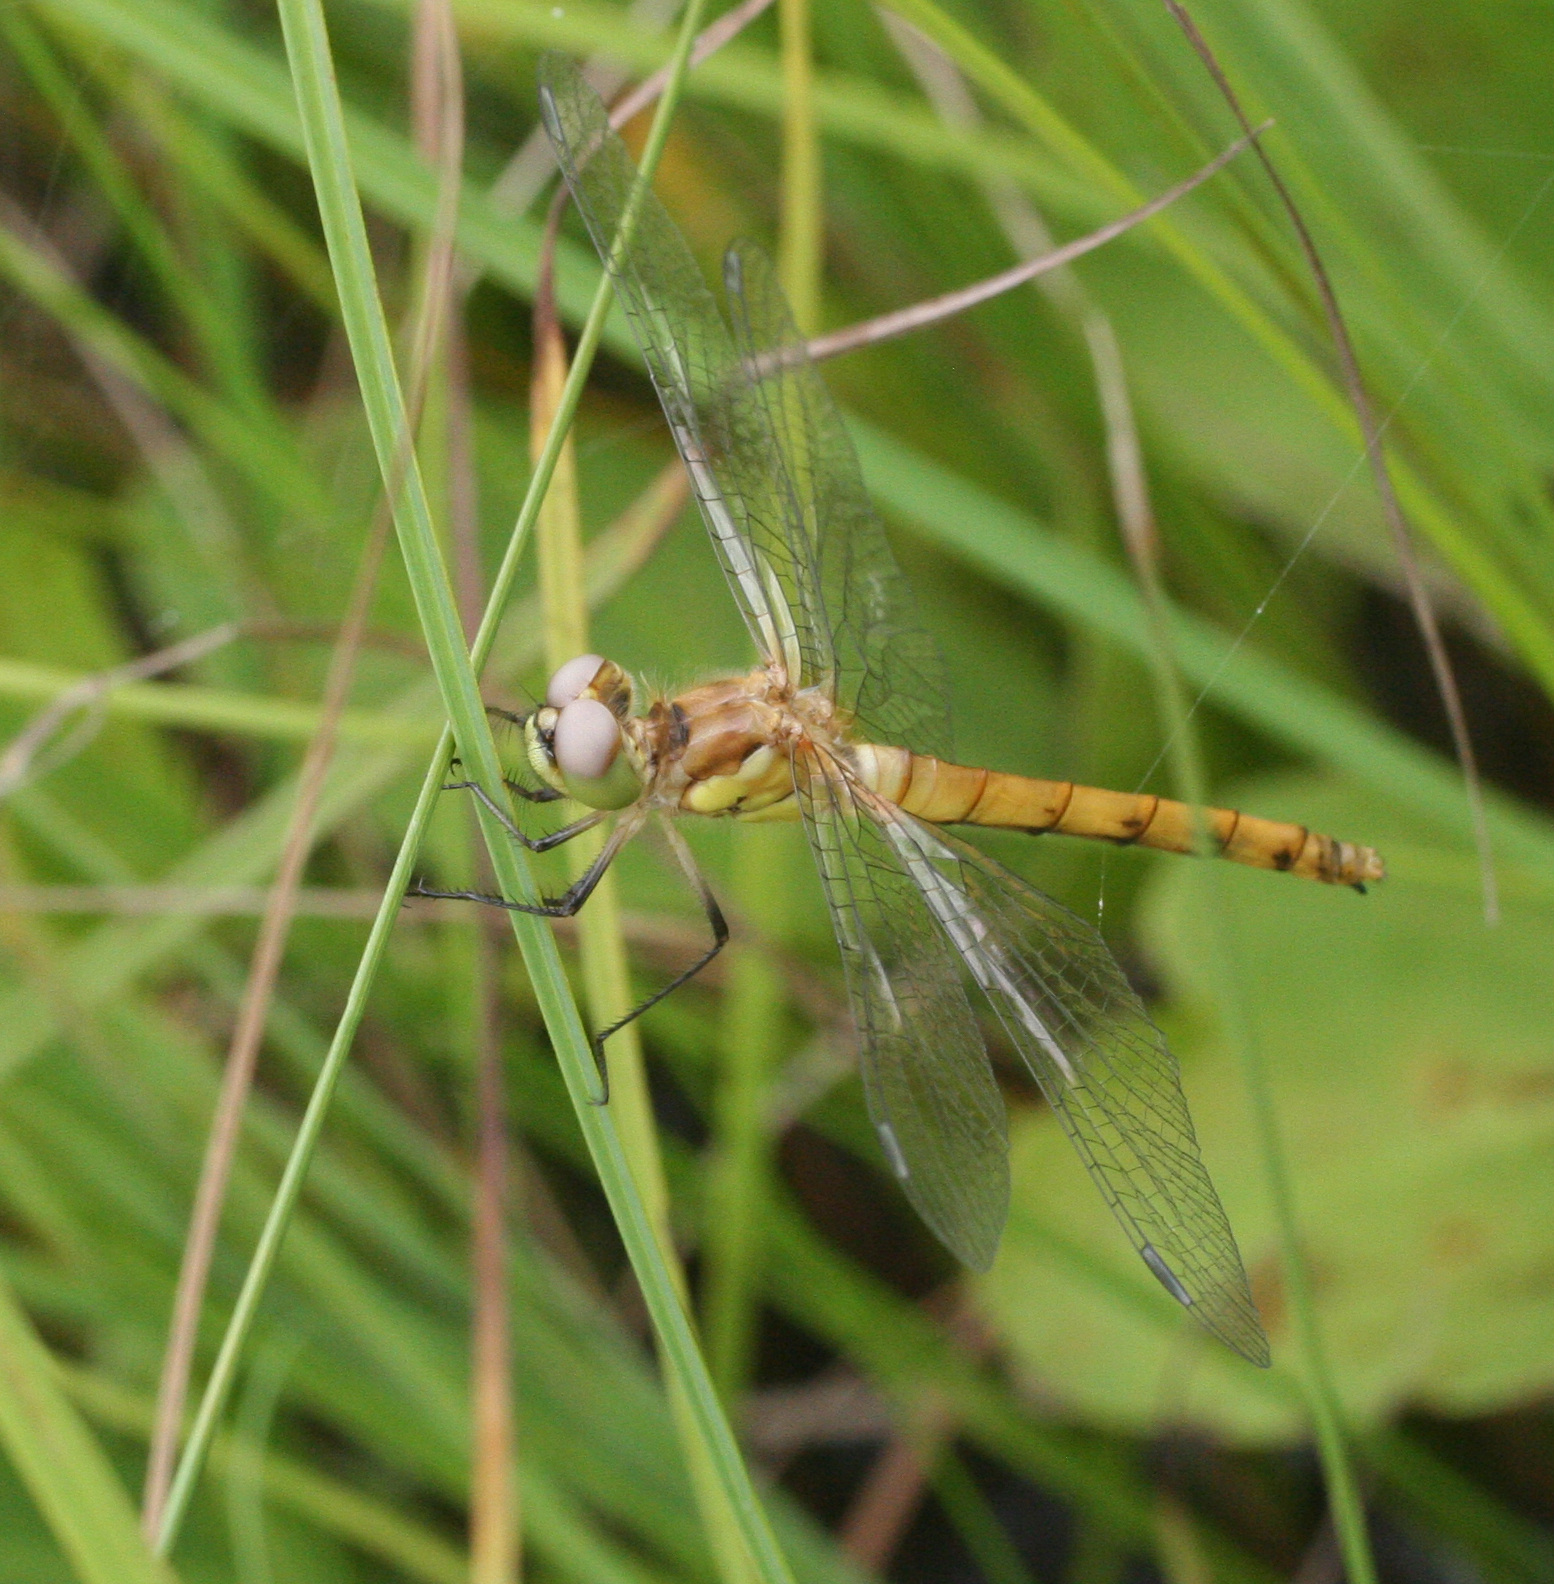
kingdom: Animalia
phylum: Arthropoda
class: Insecta
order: Odonata
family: Libellulidae
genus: Sympetrum
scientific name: Sympetrum cordulegaster
